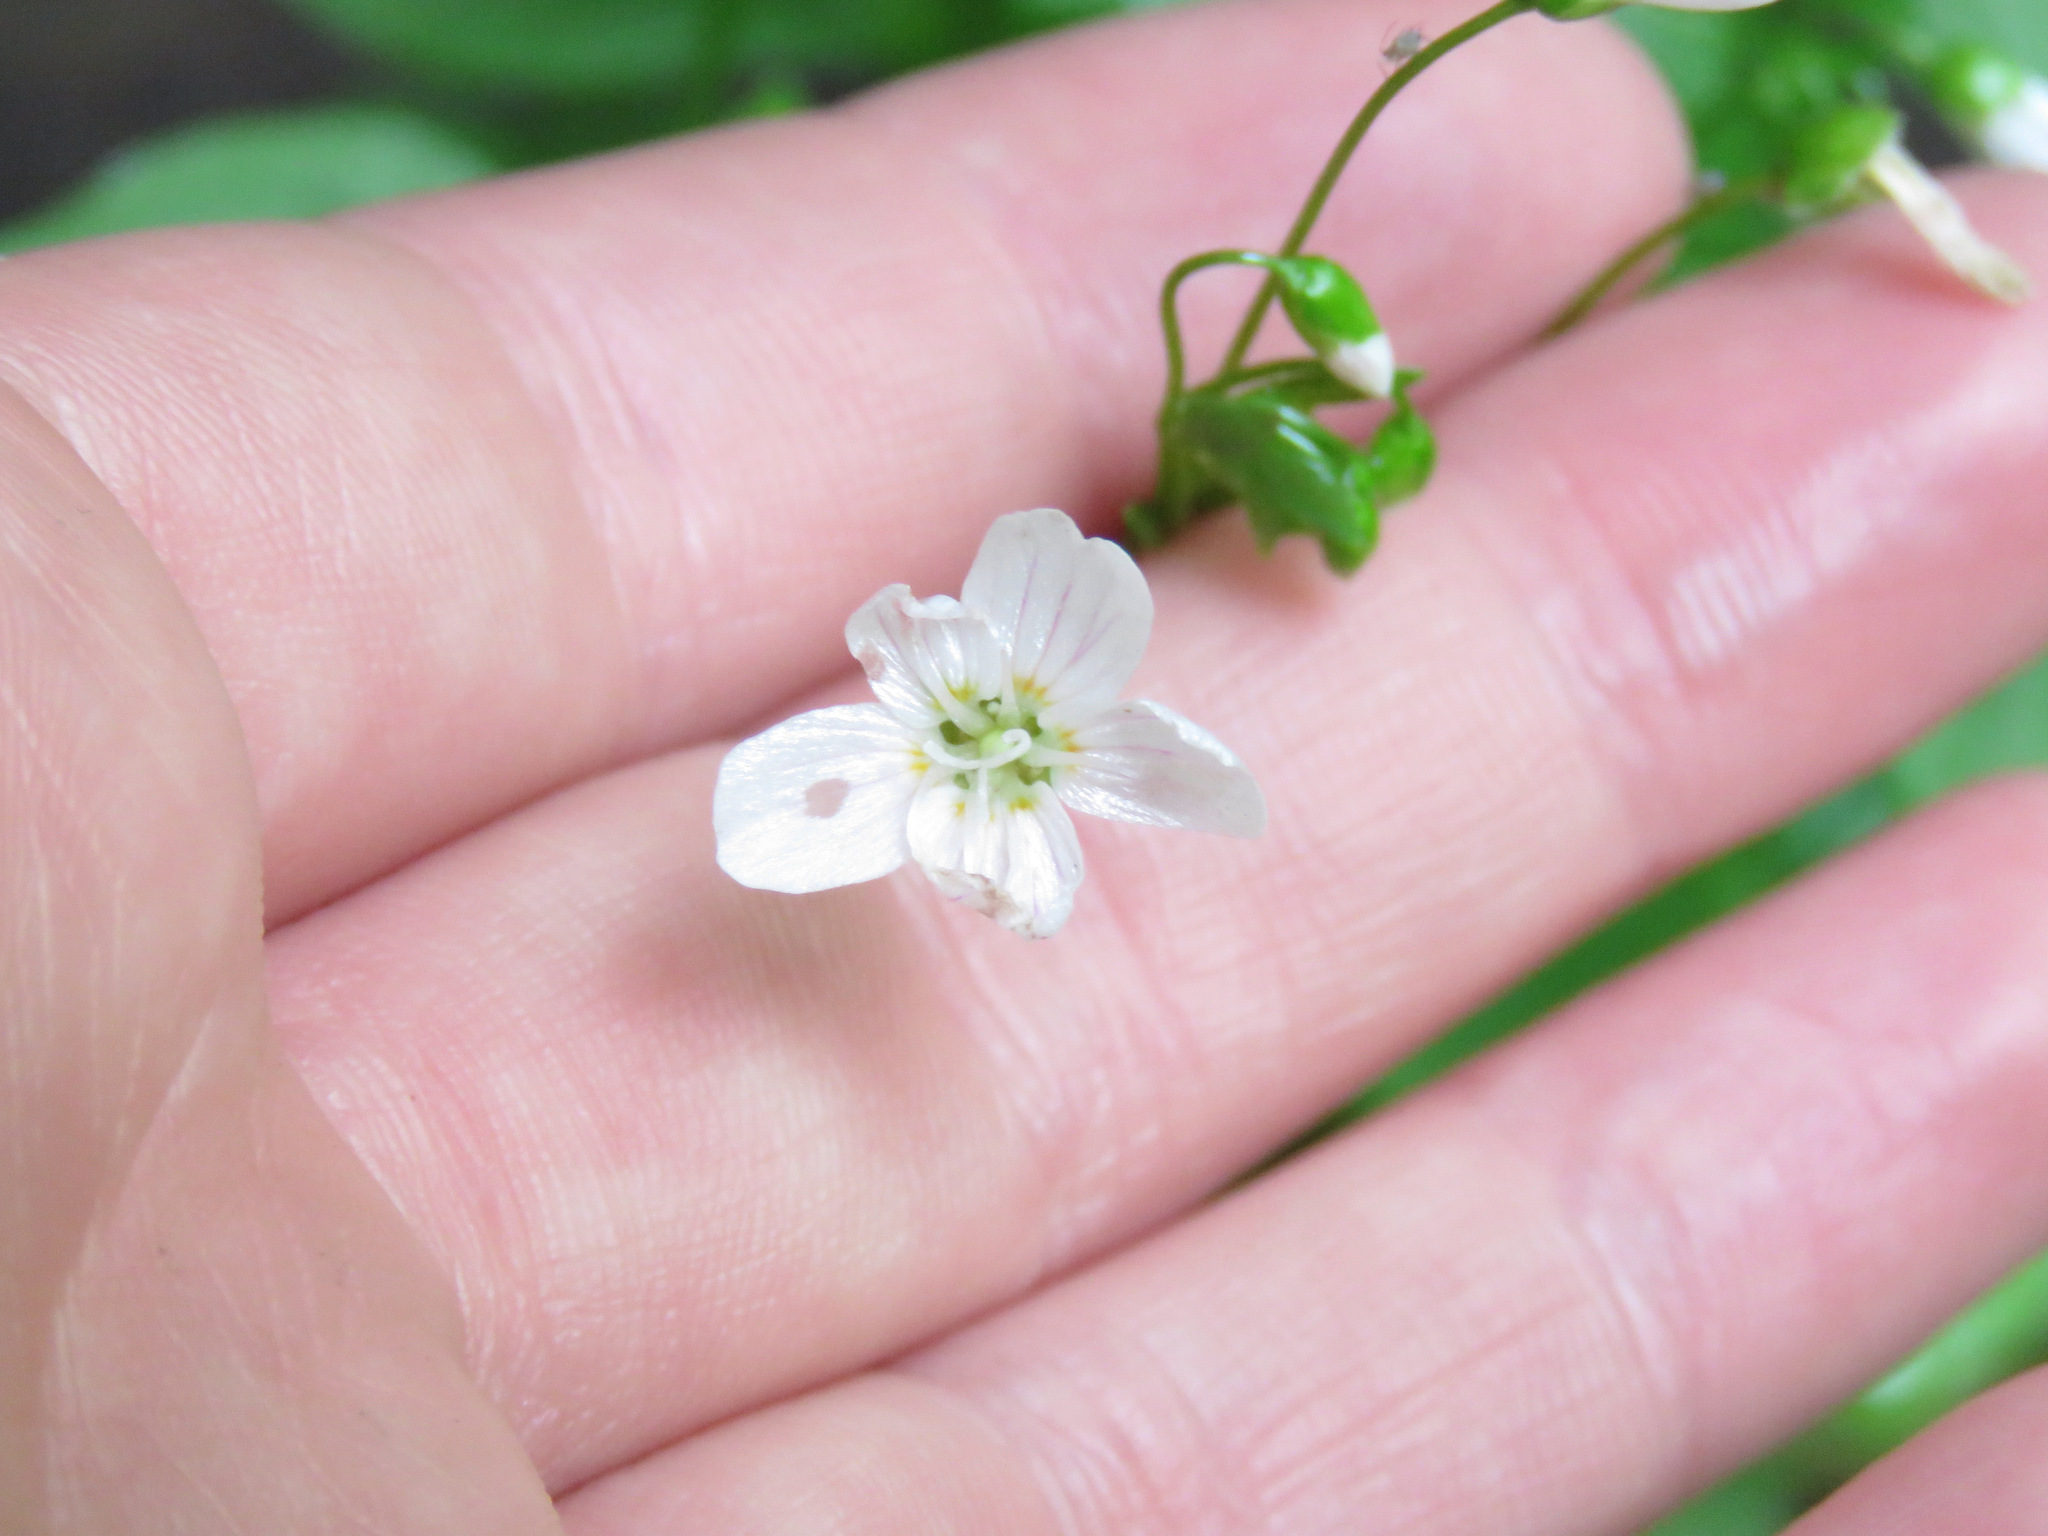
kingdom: Plantae
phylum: Tracheophyta
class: Magnoliopsida
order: Caryophyllales
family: Montiaceae
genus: Claytonia
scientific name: Claytonia sibirica
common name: Pink purslane
